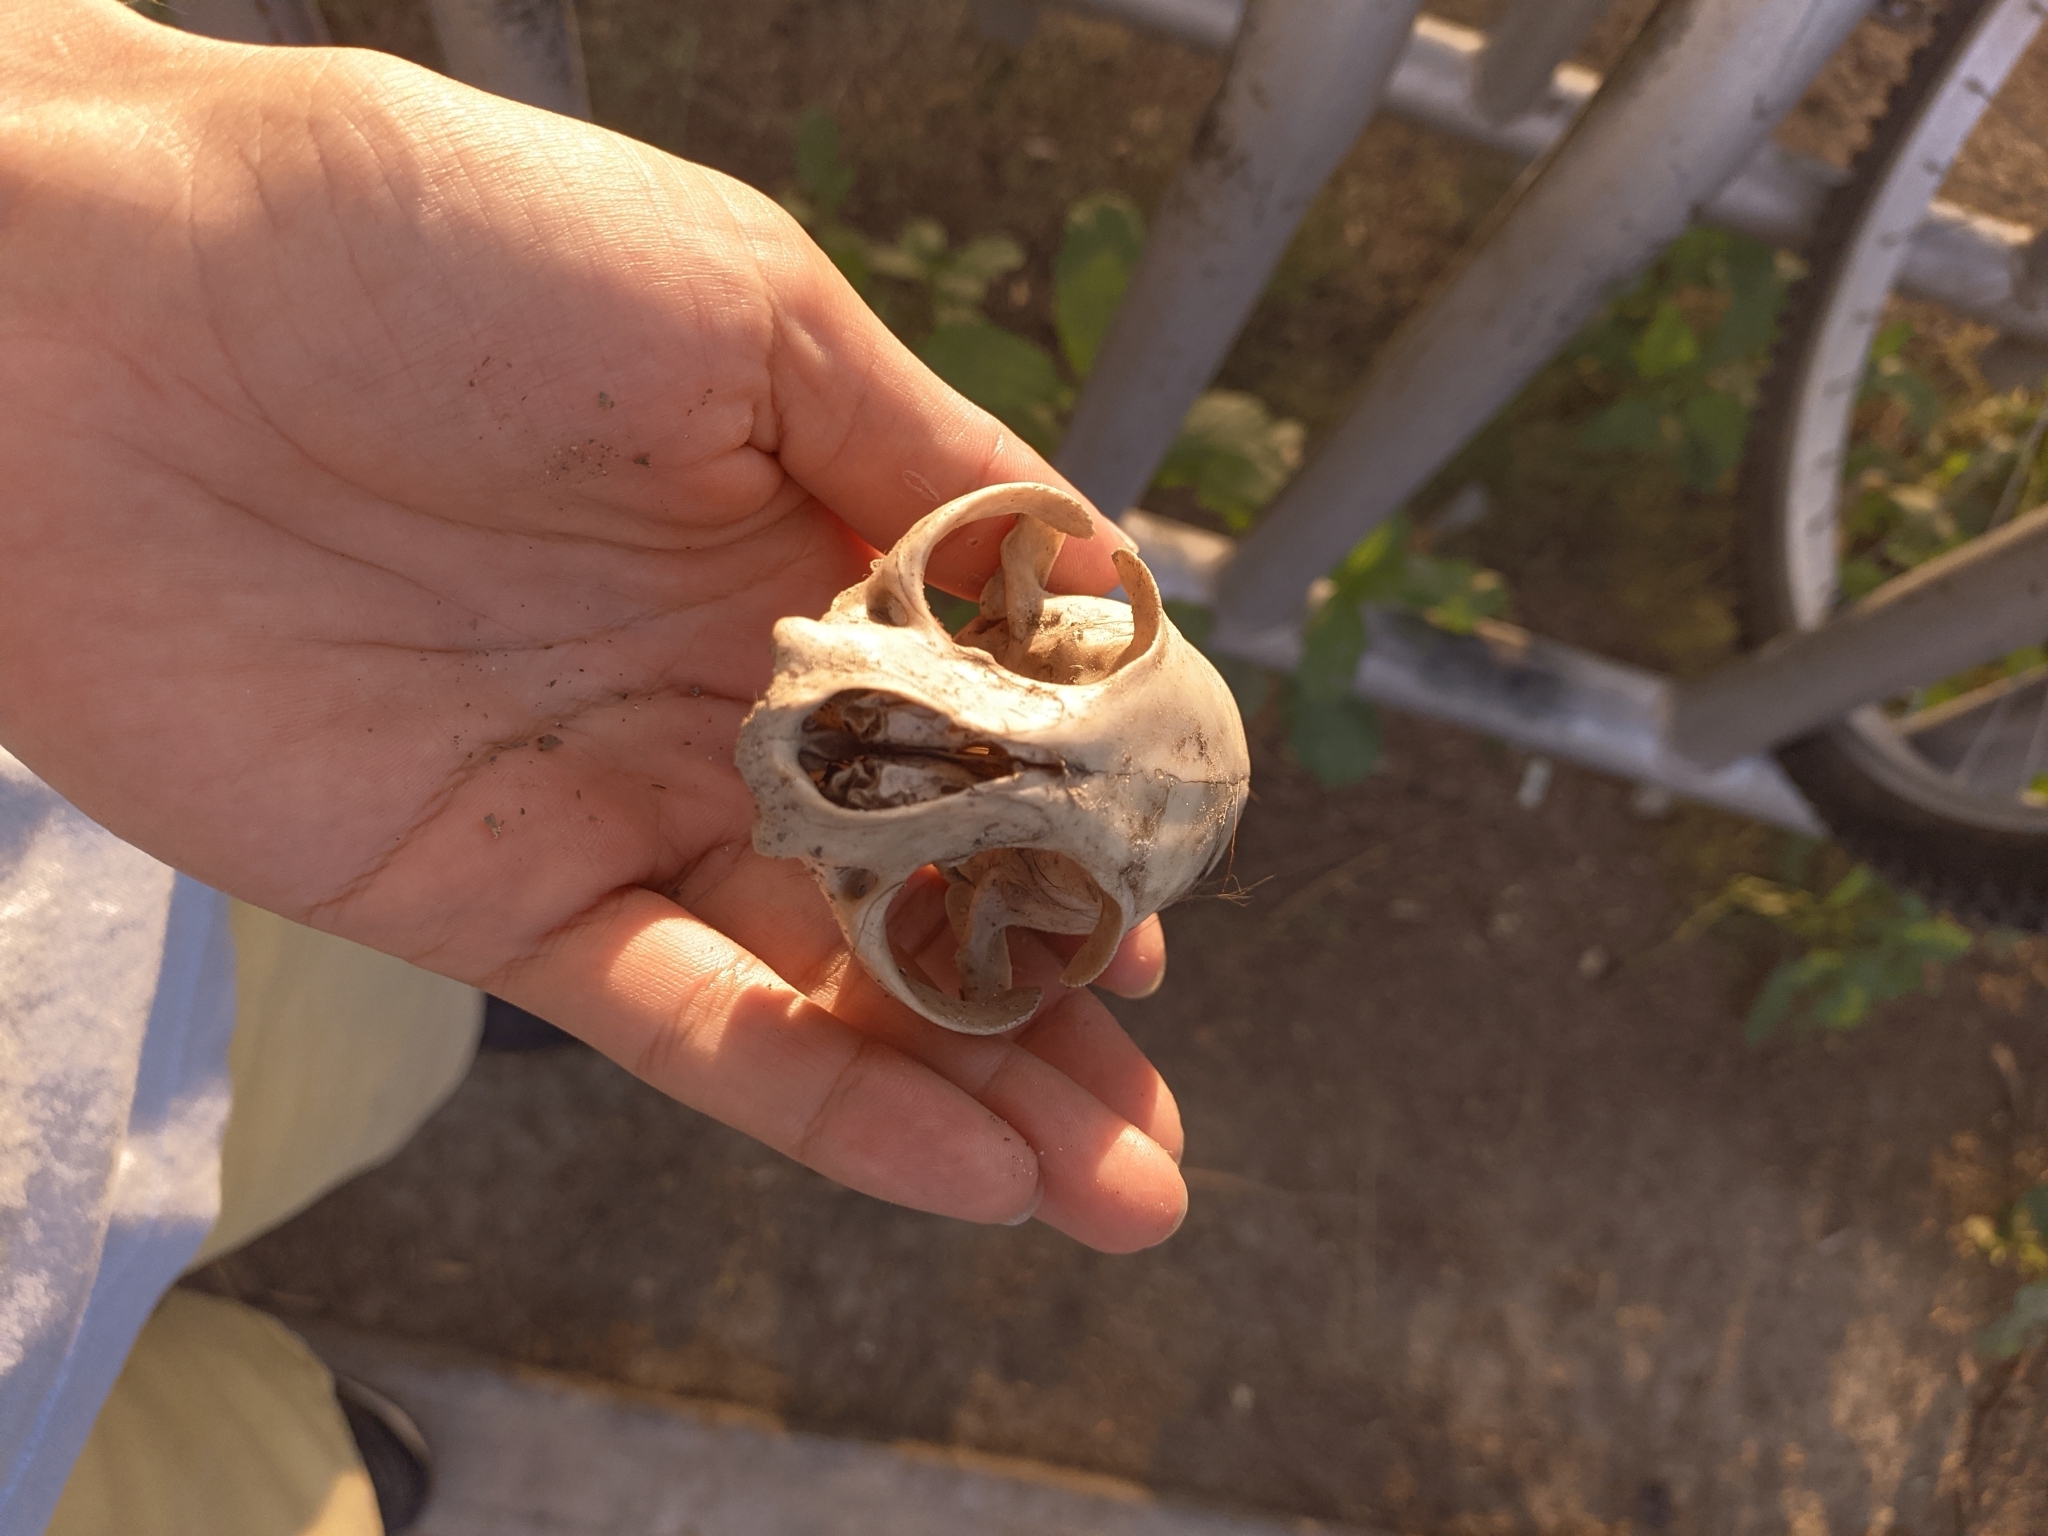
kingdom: Animalia
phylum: Chordata
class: Mammalia
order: Carnivora
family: Felidae
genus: Felis
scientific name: Felis catus
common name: Domestic cat
